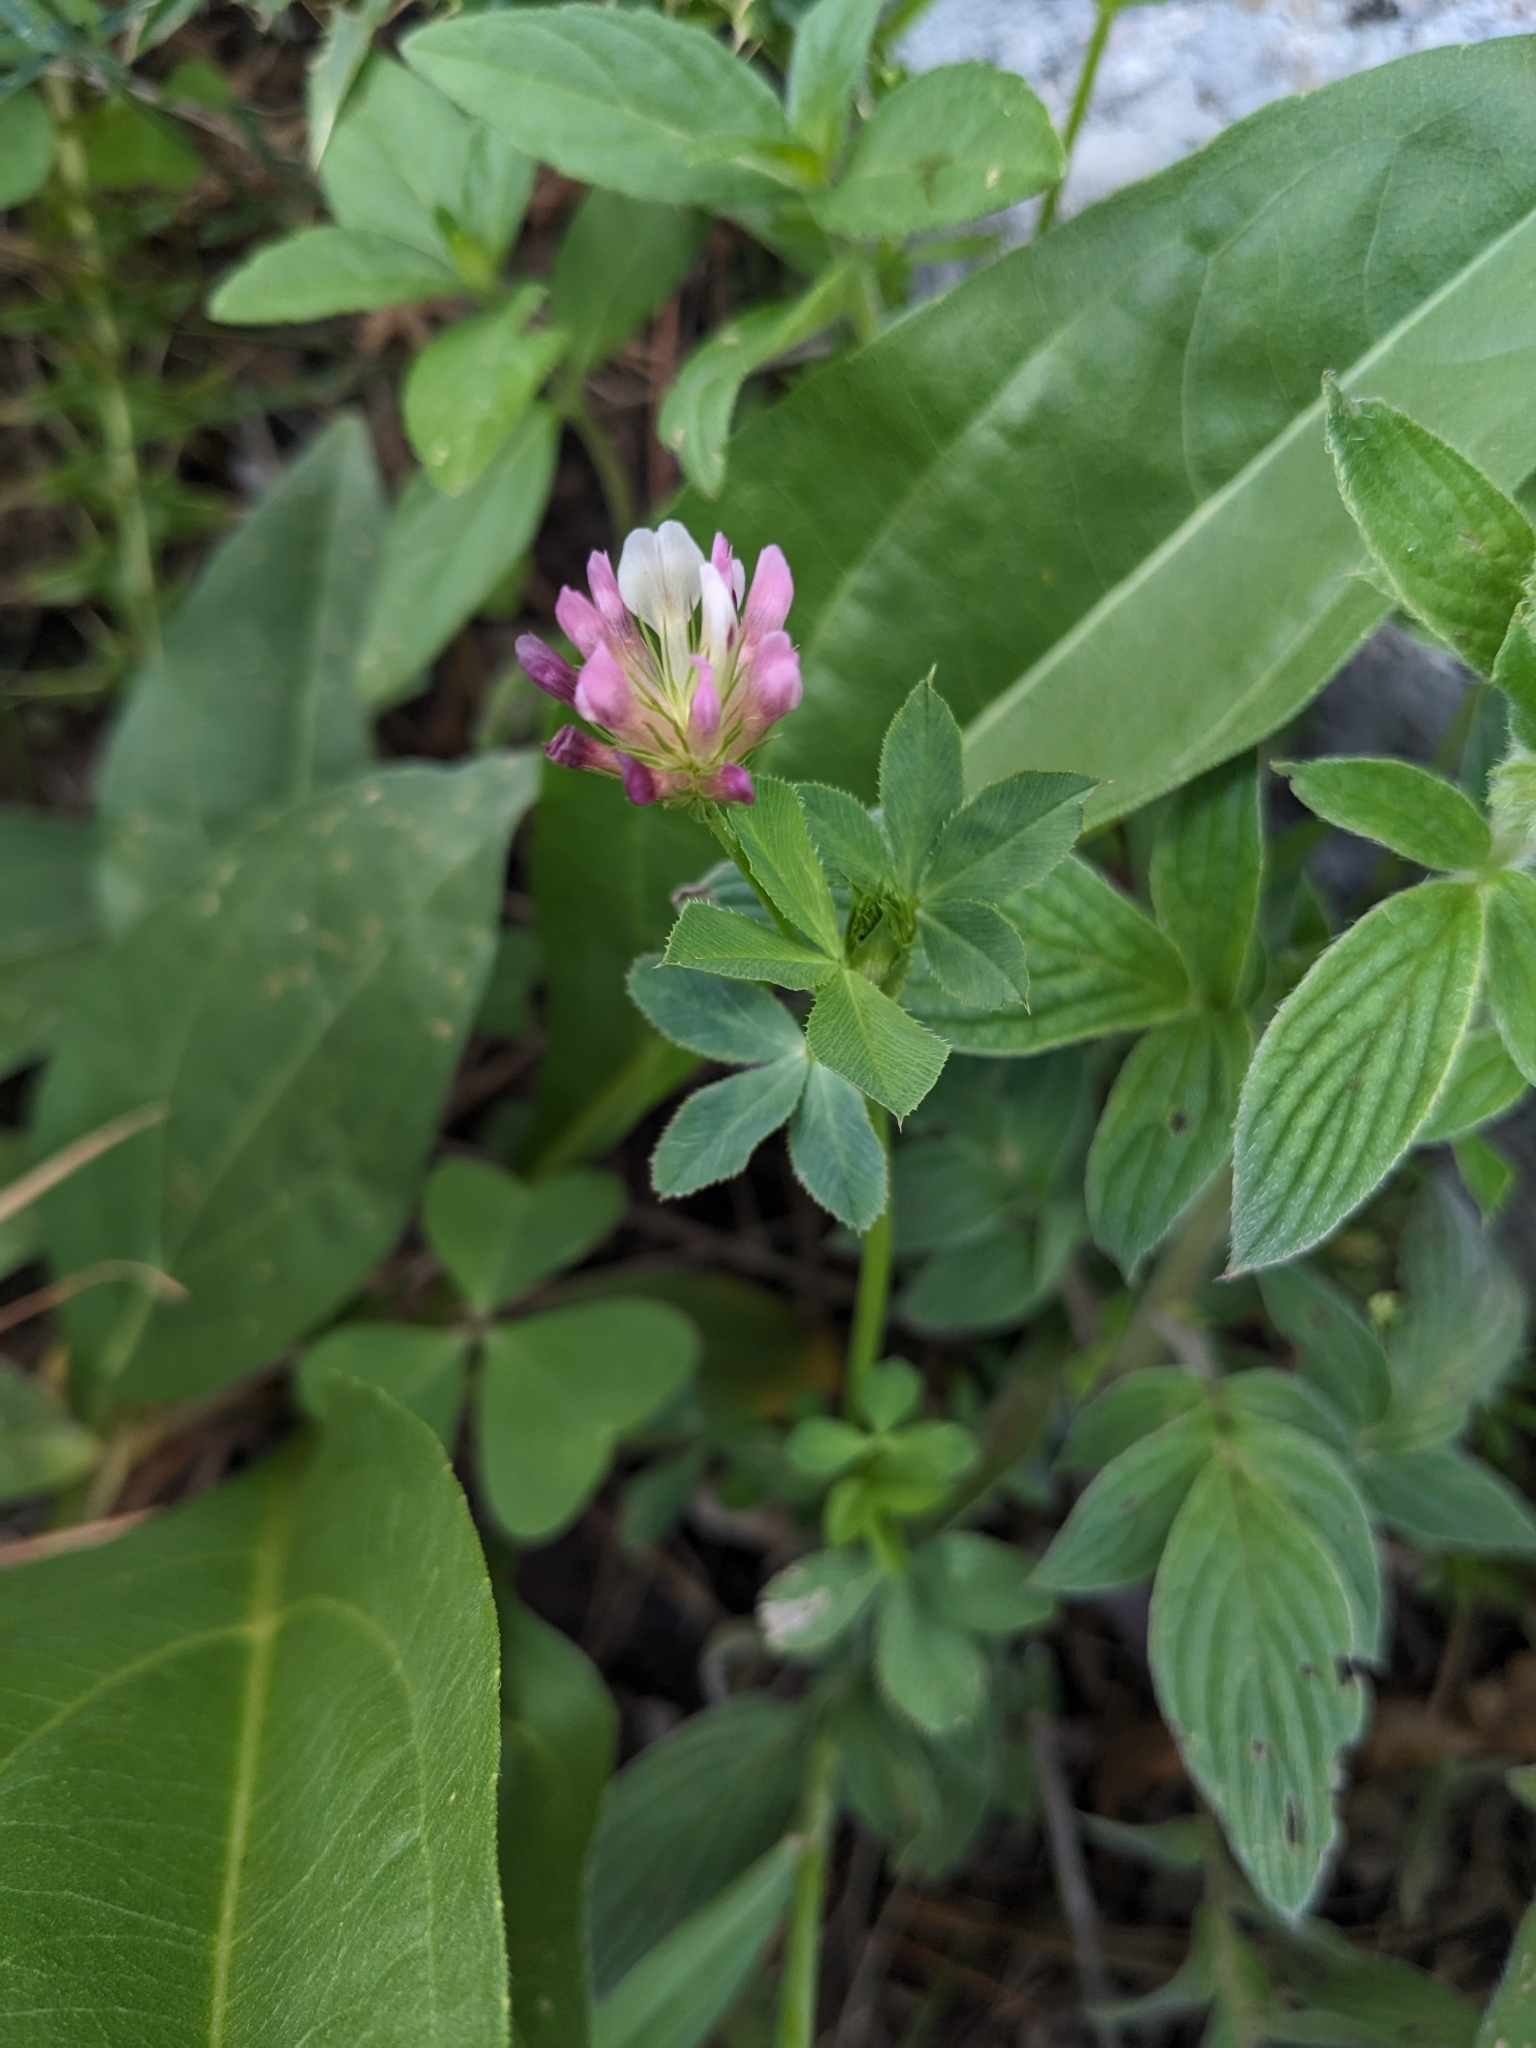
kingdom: Plantae
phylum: Tracheophyta
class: Magnoliopsida
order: Fabales
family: Fabaceae
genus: Trifolium
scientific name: Trifolium wormskioldii
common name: Springbank clover
